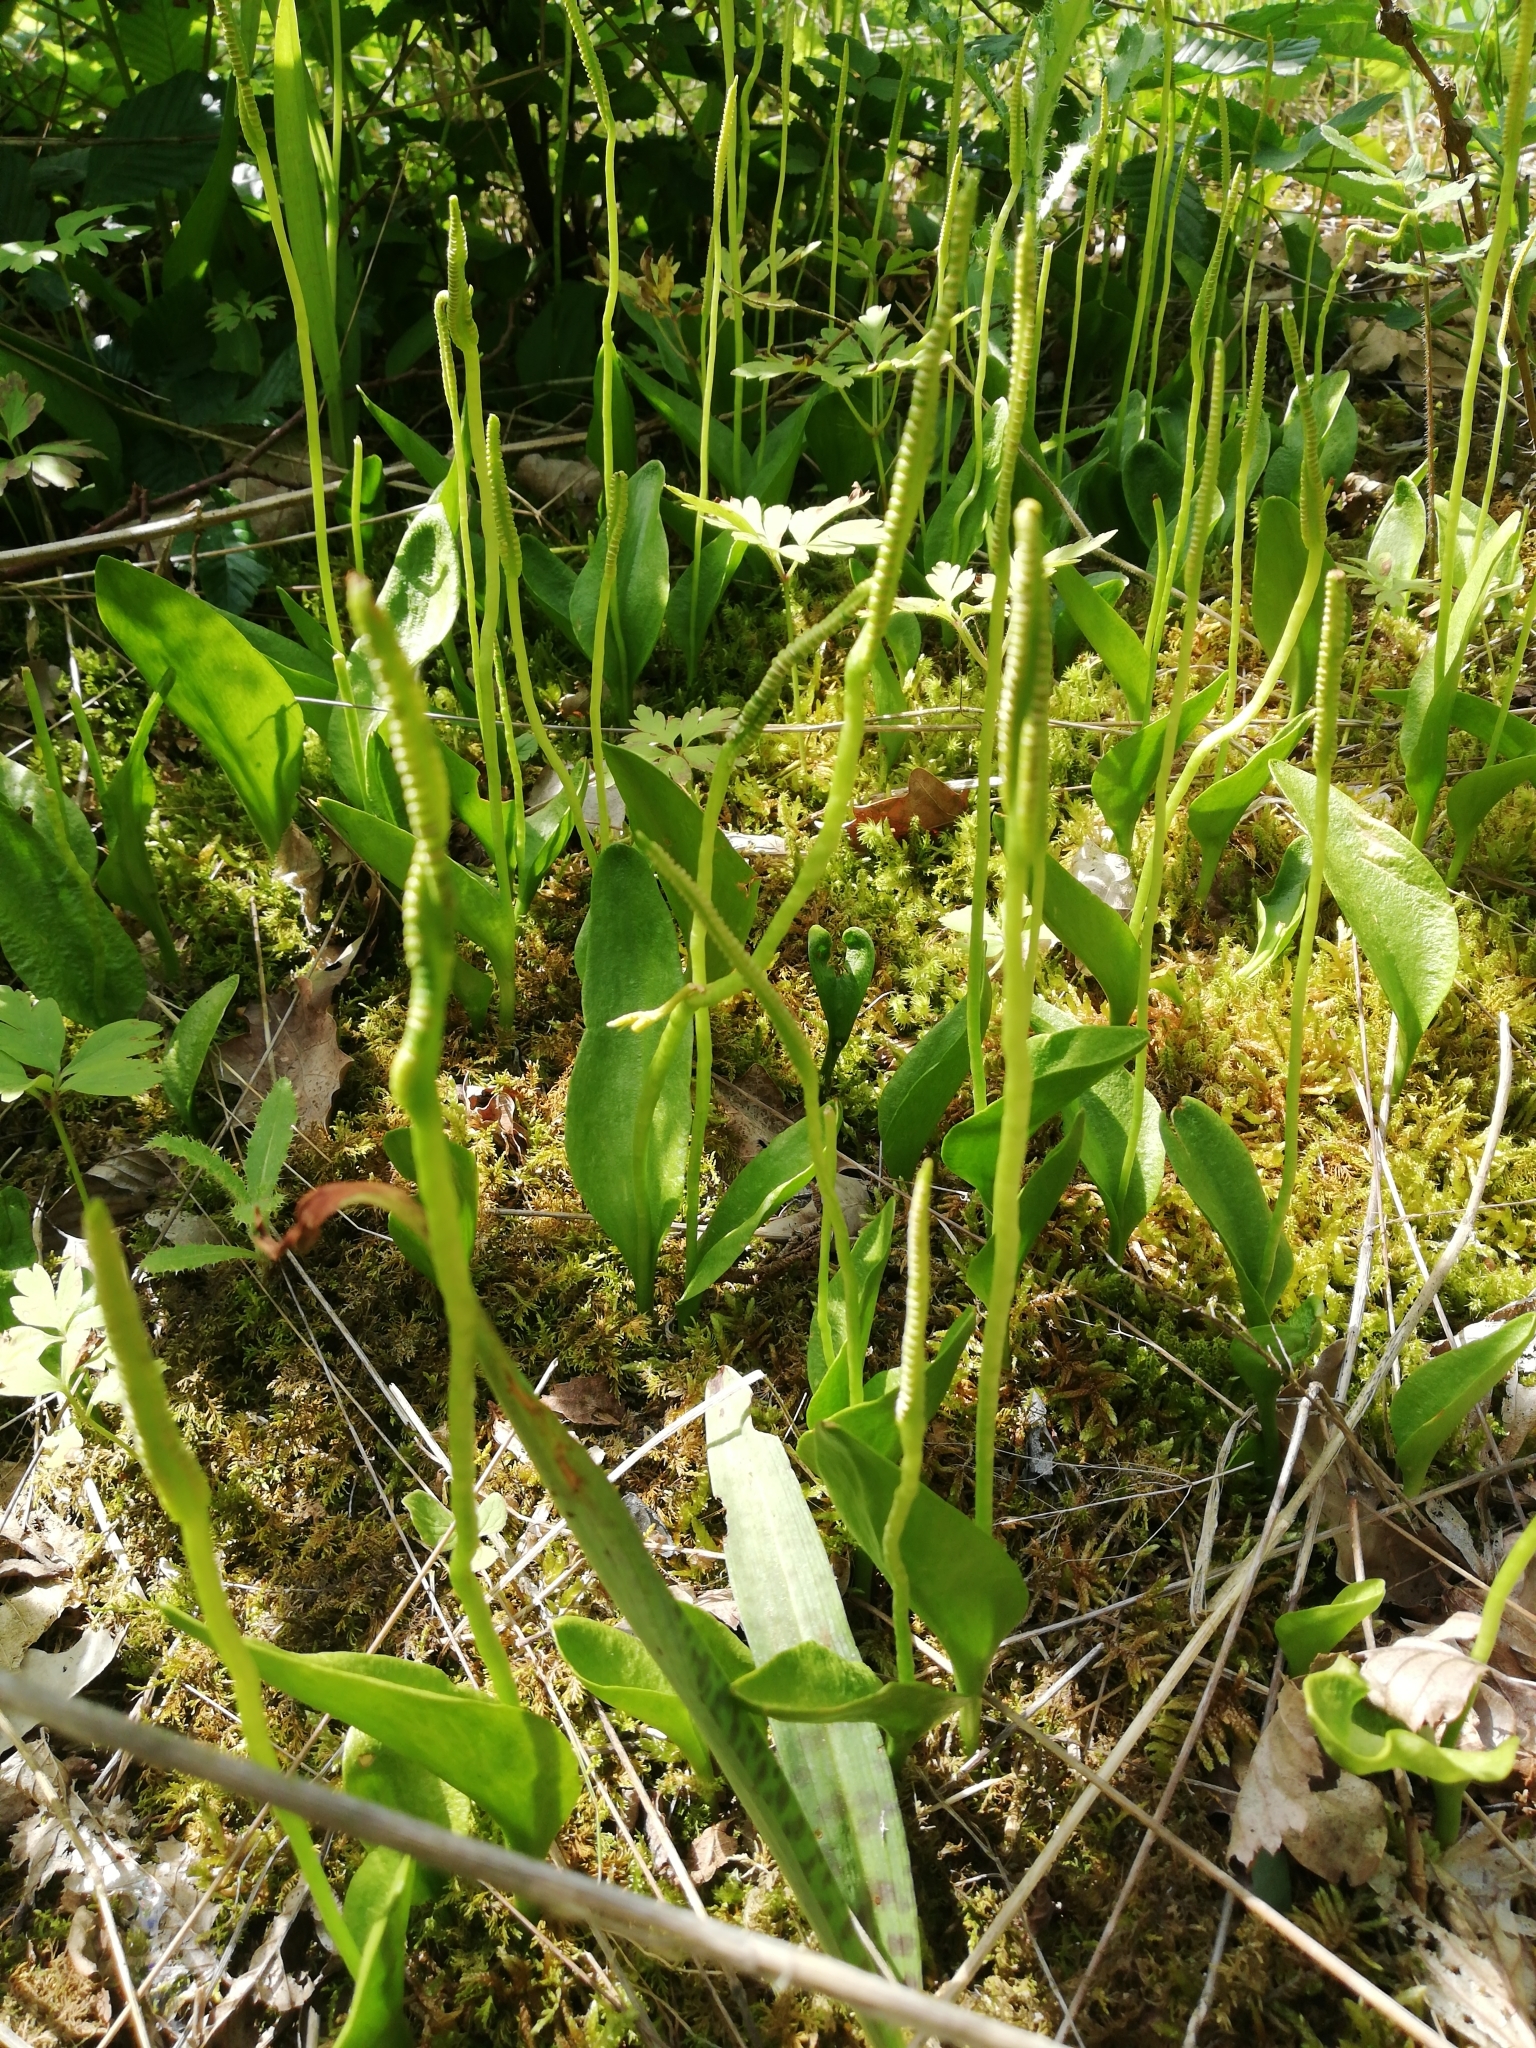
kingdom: Plantae
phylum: Tracheophyta
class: Polypodiopsida
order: Ophioglossales
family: Ophioglossaceae
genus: Ophioglossum
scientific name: Ophioglossum vulgatum
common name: Adder's-tongue
